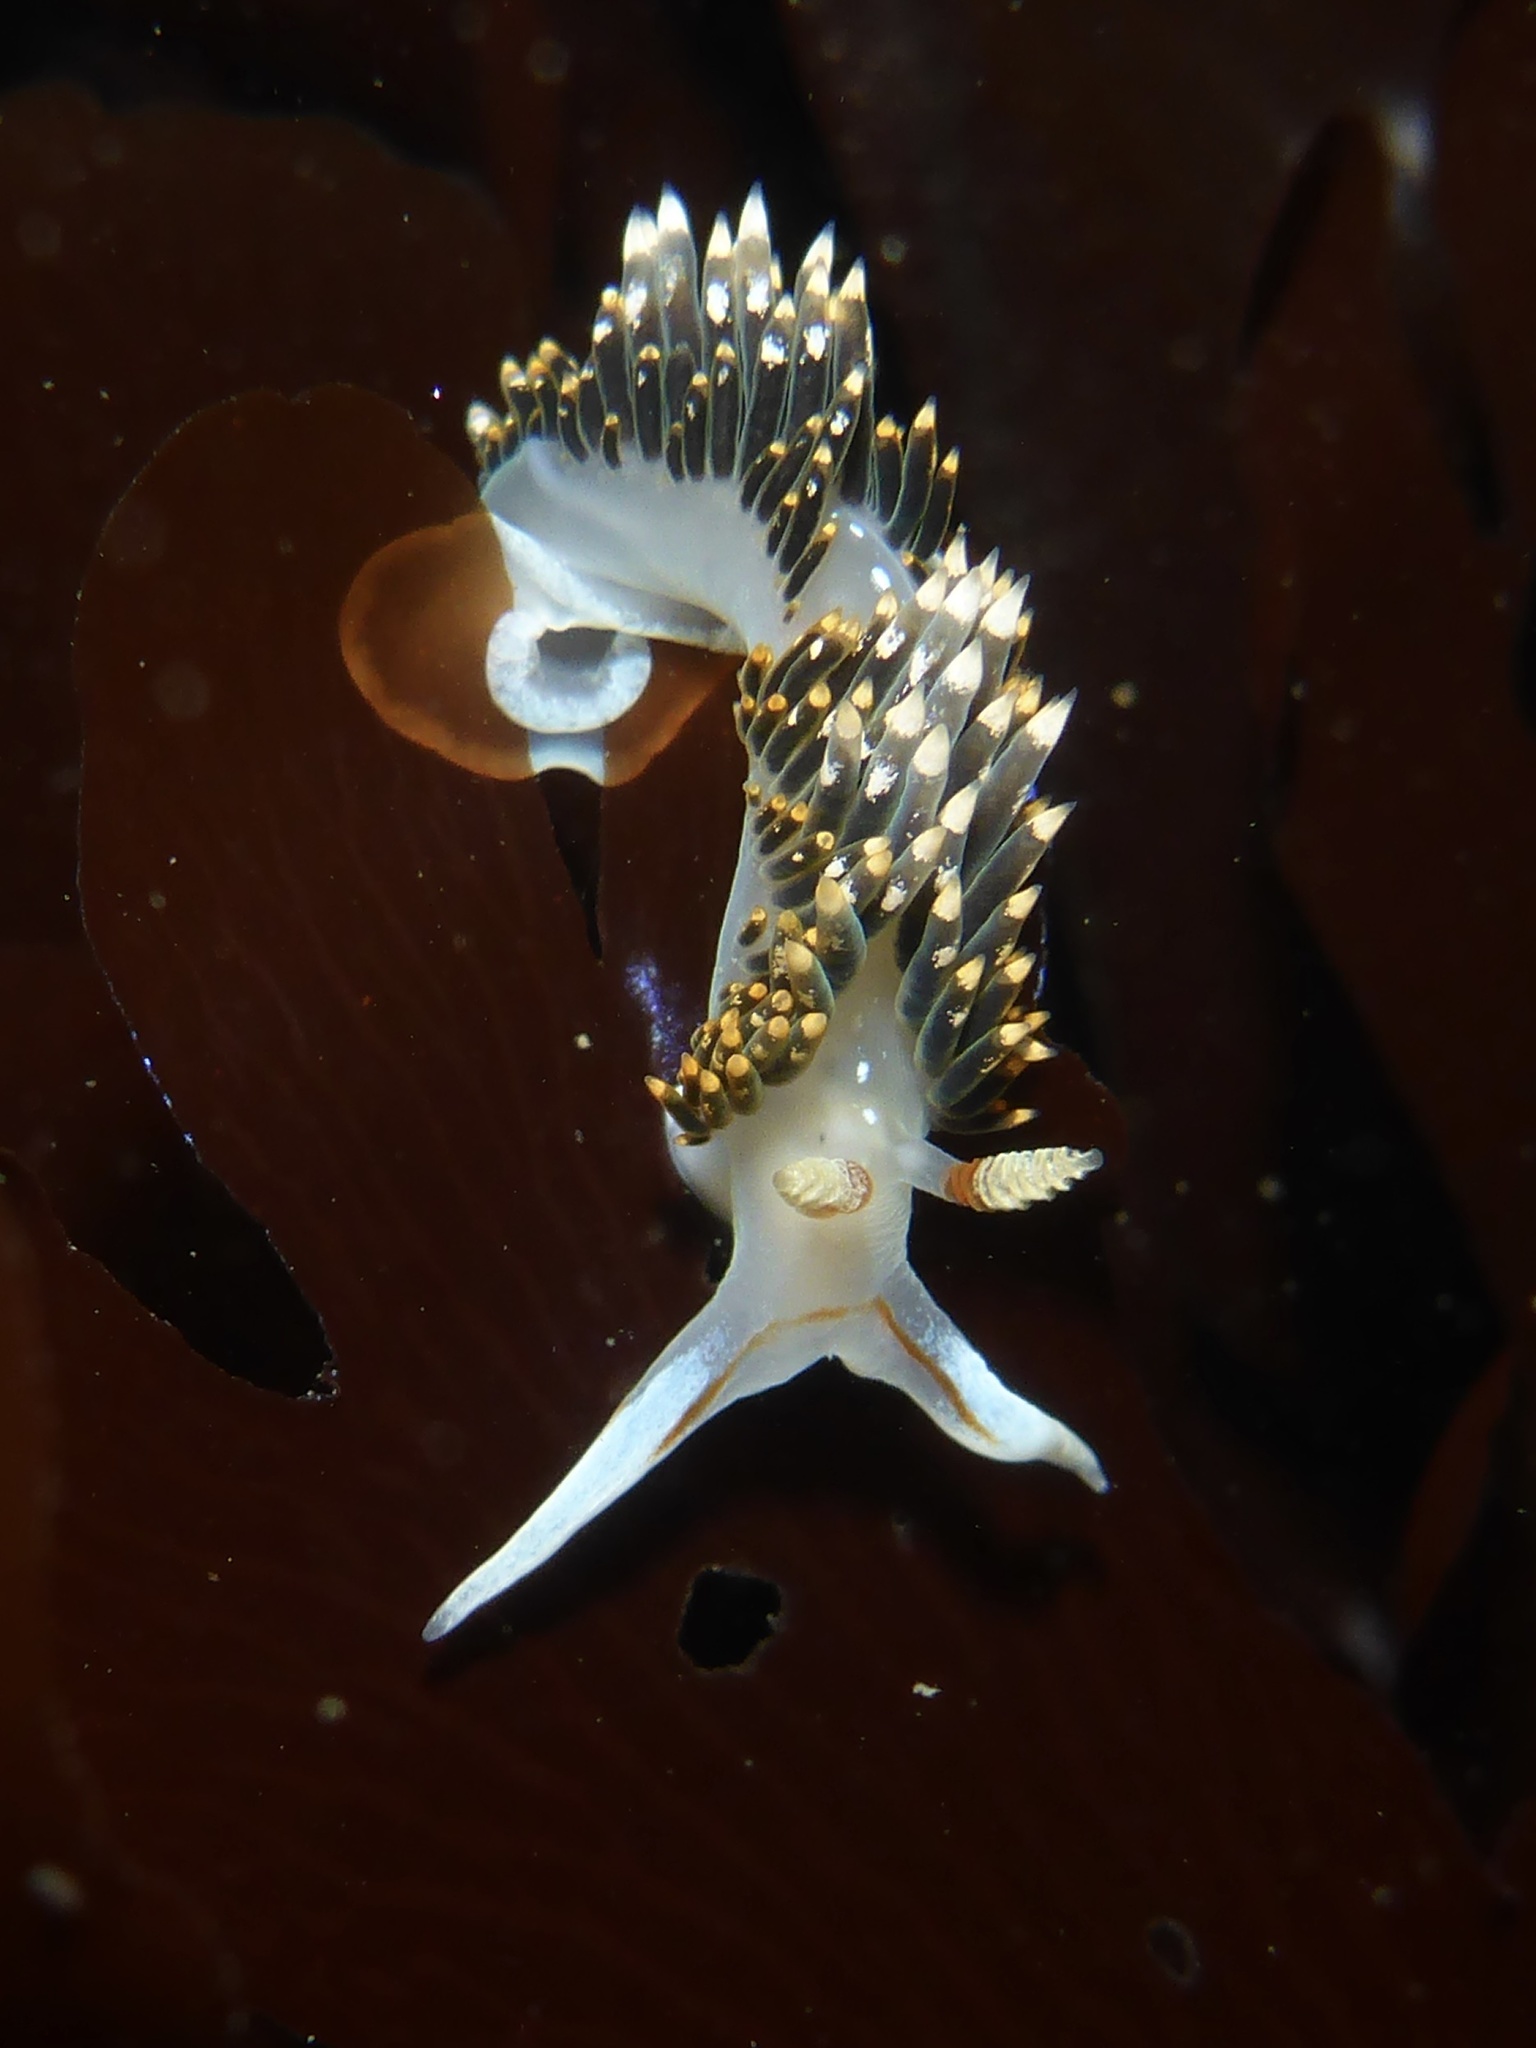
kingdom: Animalia
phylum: Mollusca
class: Gastropoda
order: Nudibranchia
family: Facelinidae
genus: Phidiana
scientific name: Phidiana hiltoni
